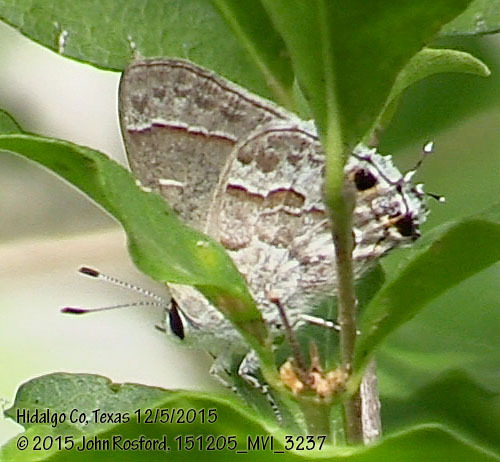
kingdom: Animalia
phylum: Arthropoda
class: Insecta
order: Lepidoptera
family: Lycaenidae
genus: Strymon
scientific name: Strymon alea
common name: Lacey's scrub-hairstreak
